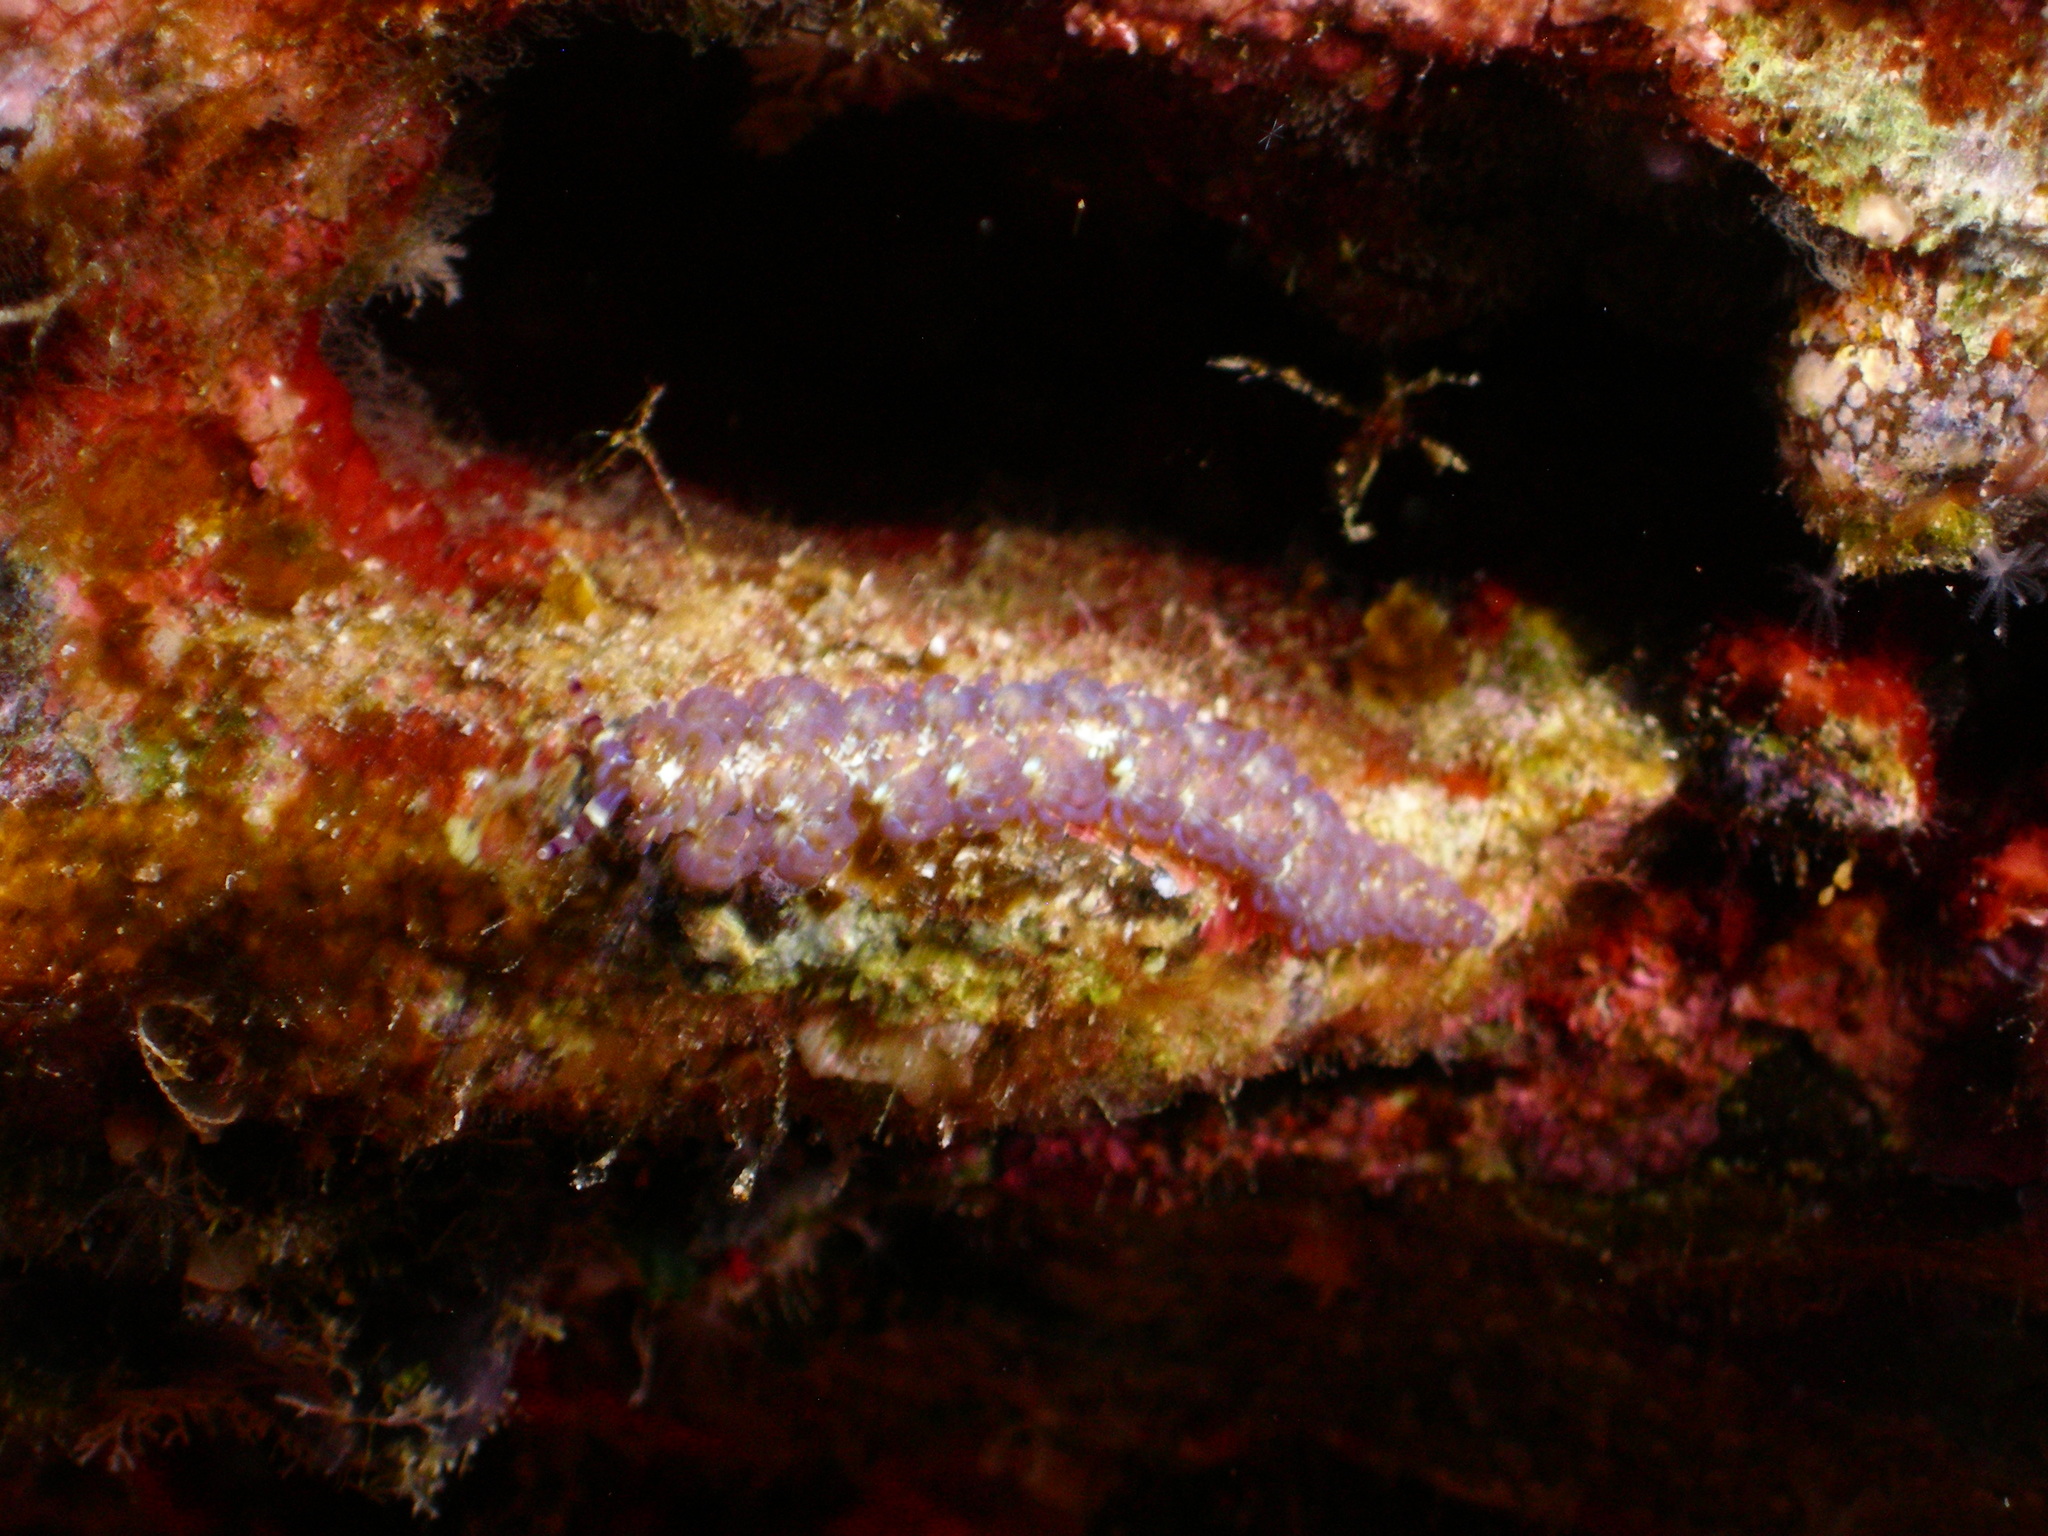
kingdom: Animalia
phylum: Mollusca
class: Gastropoda
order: Nudibranchia
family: Facelinidae
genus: Pteraeolidia
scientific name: Pteraeolidia semperi
